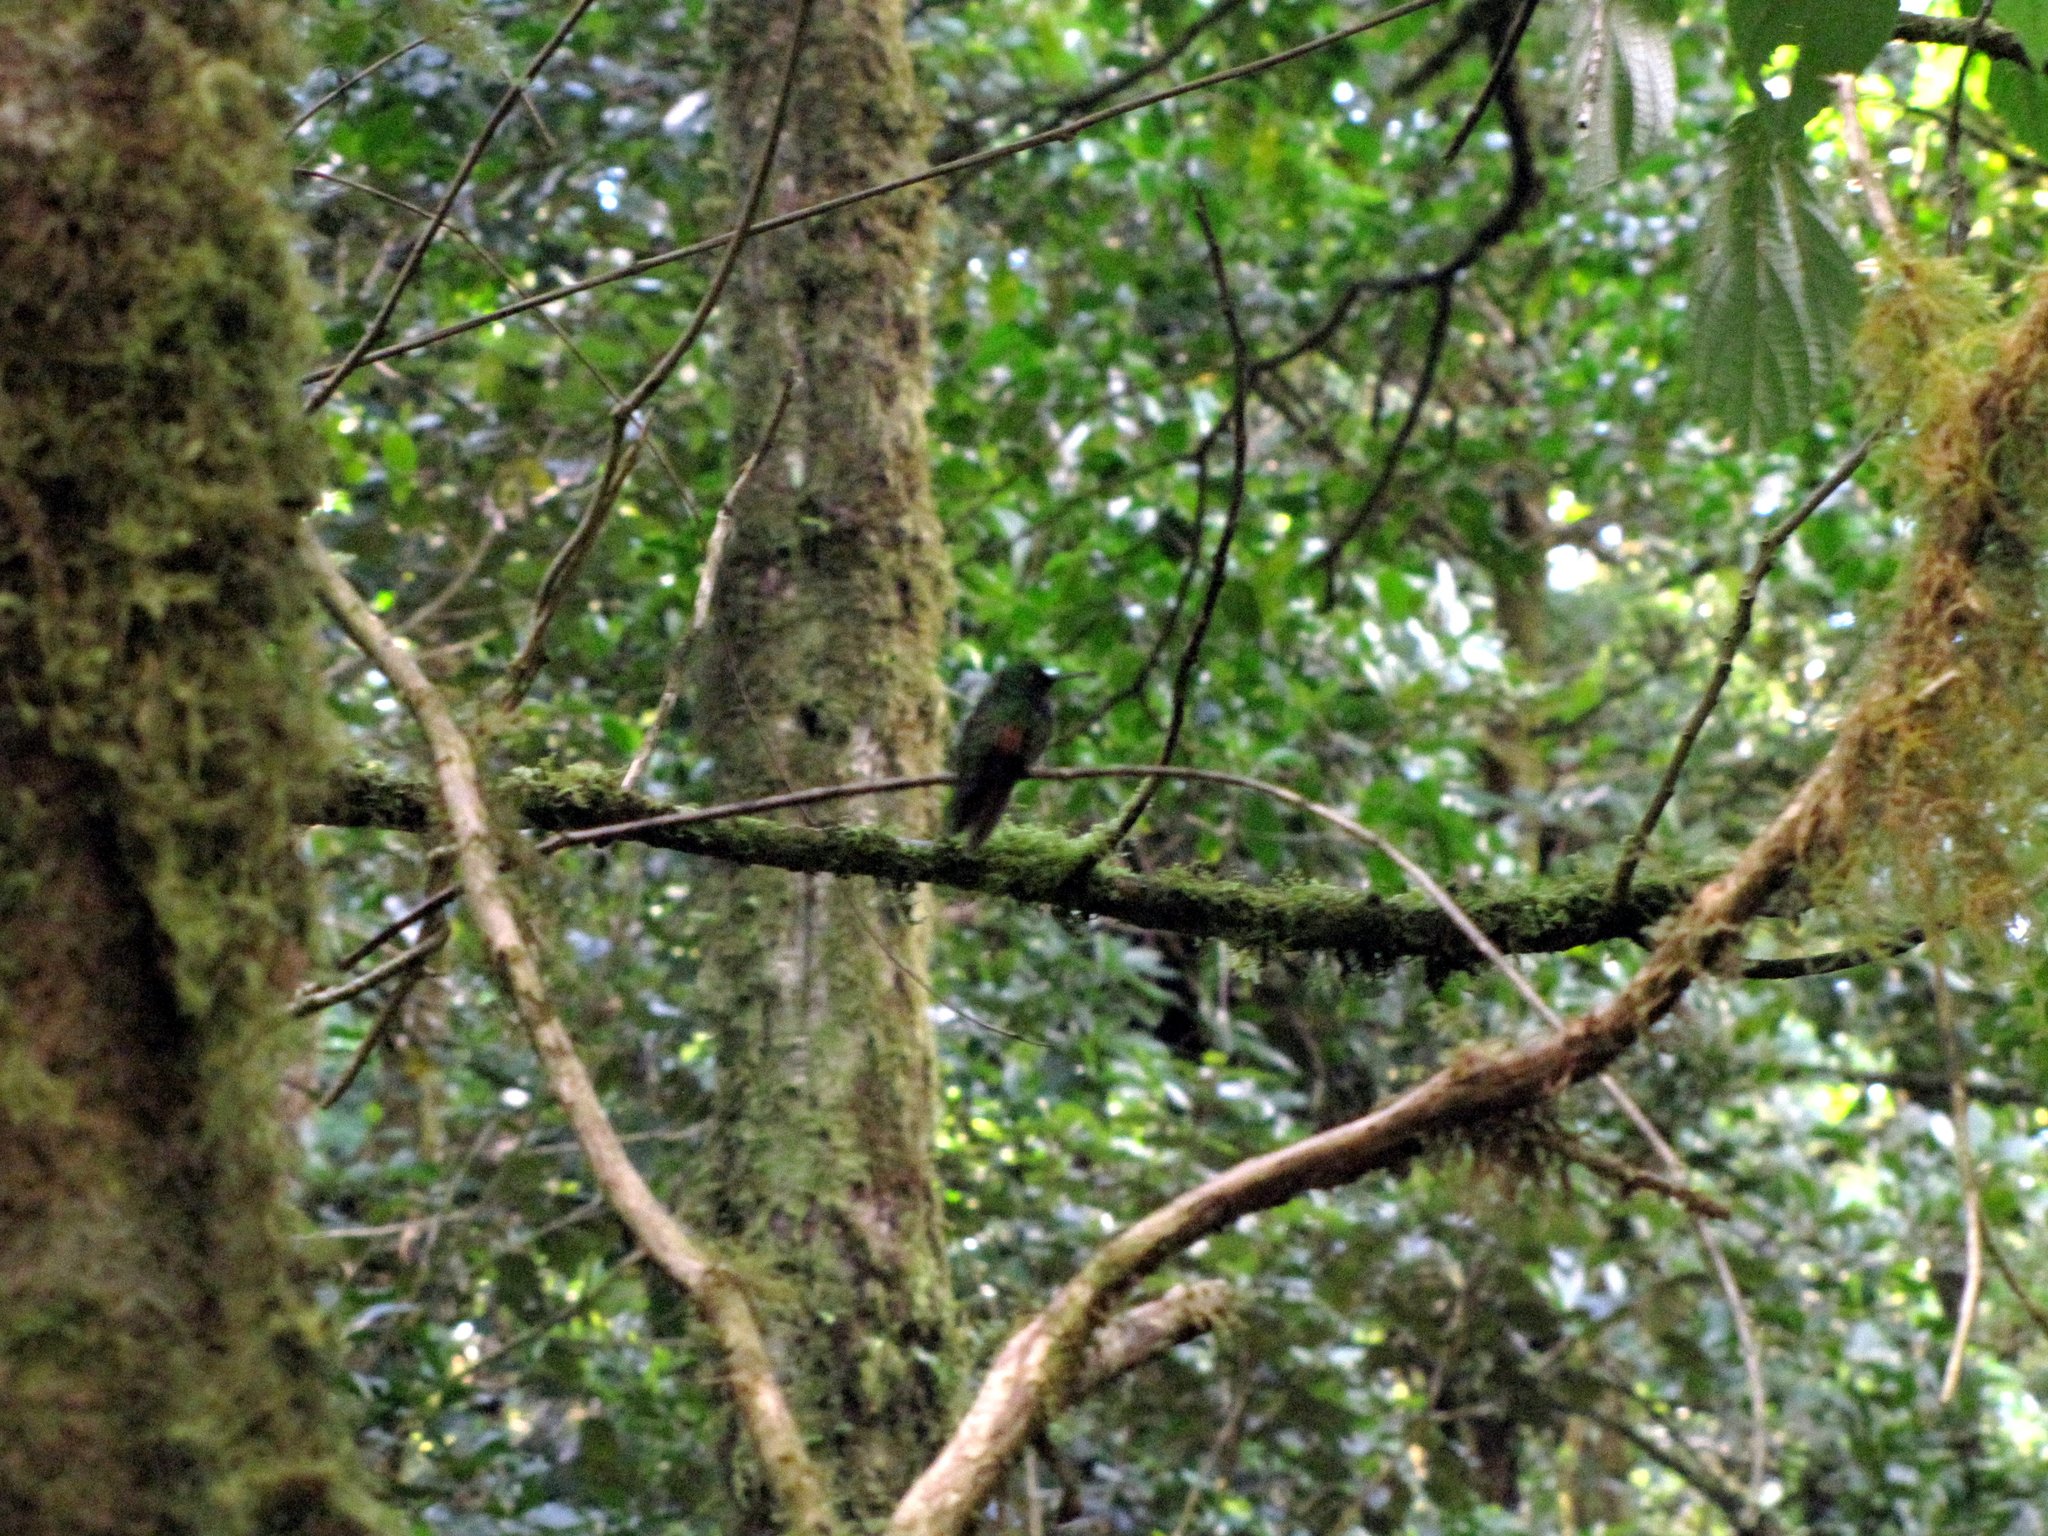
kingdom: Animalia
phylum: Chordata
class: Aves
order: Apodiformes
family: Trochilidae
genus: Eupherusa
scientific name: Eupherusa nigriventris
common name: Black-bellied hummingbird
